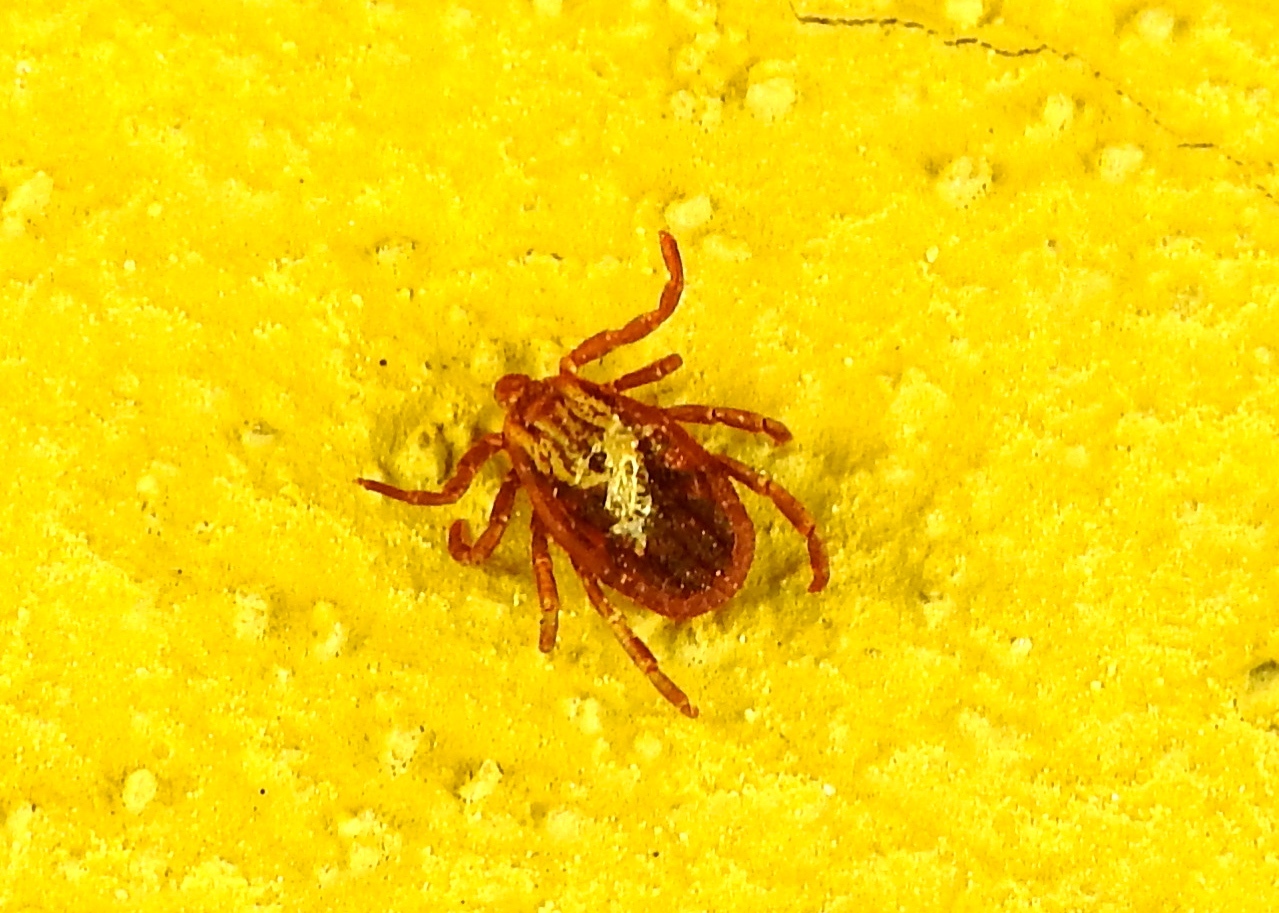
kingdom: Animalia
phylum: Arthropoda
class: Arachnida
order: Ixodida
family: Ixodidae
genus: Dermacentor
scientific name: Dermacentor
